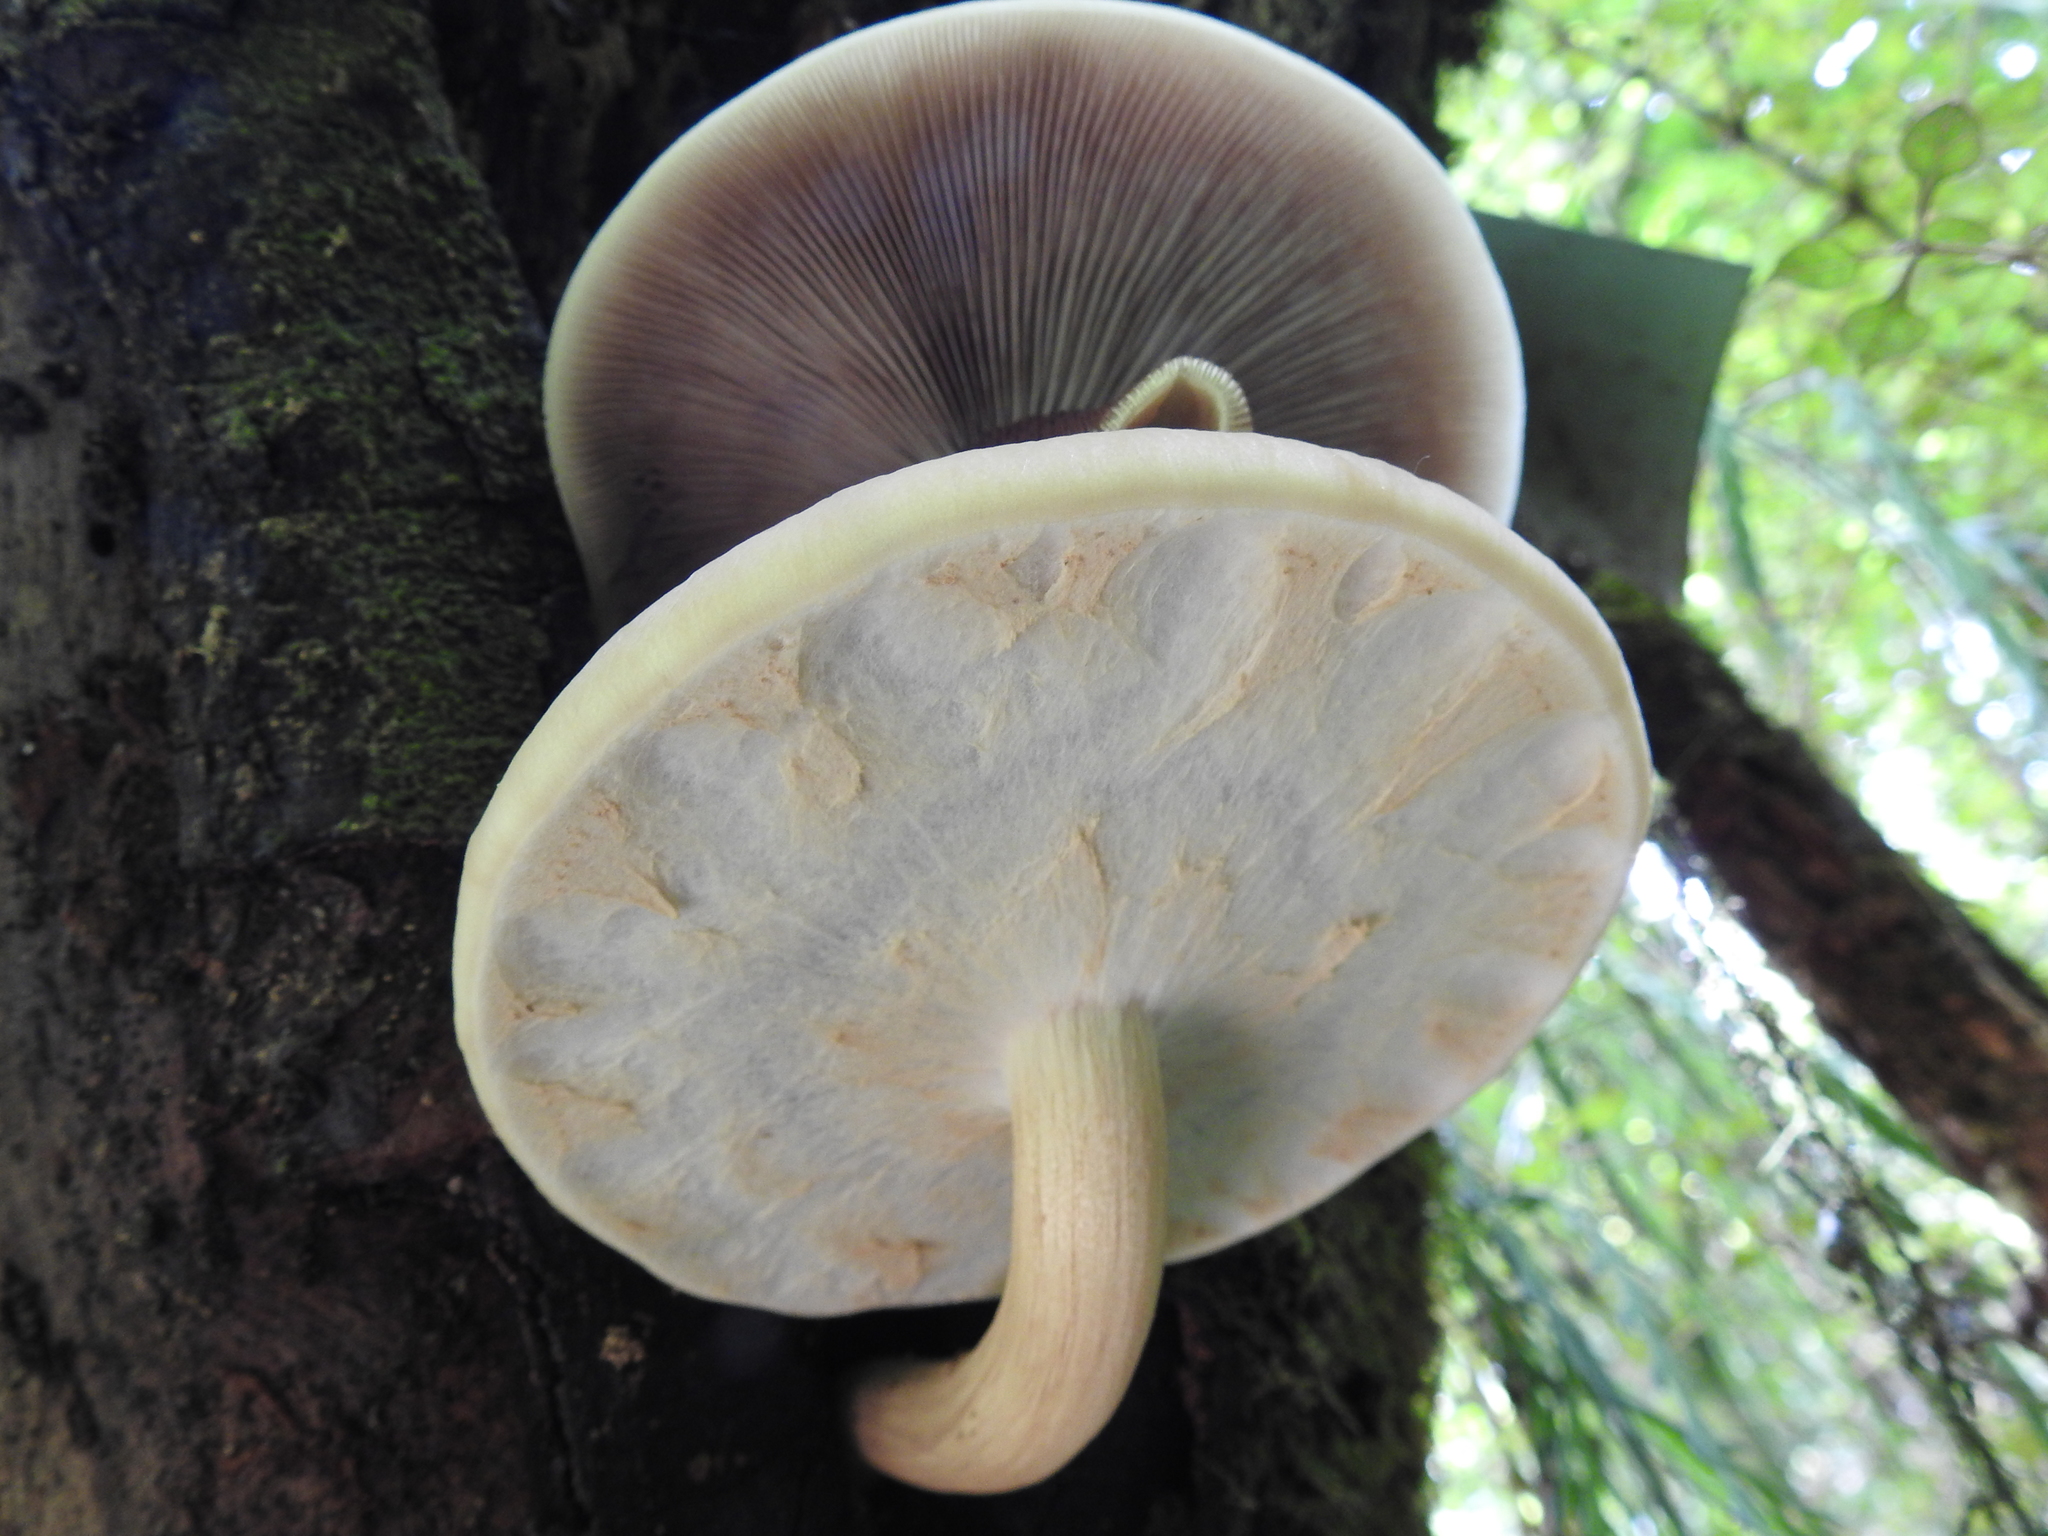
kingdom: Fungi
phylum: Basidiomycota
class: Agaricomycetes
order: Agaricales
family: Tubariaceae
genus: Cyclocybe
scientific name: Cyclocybe parasitica
